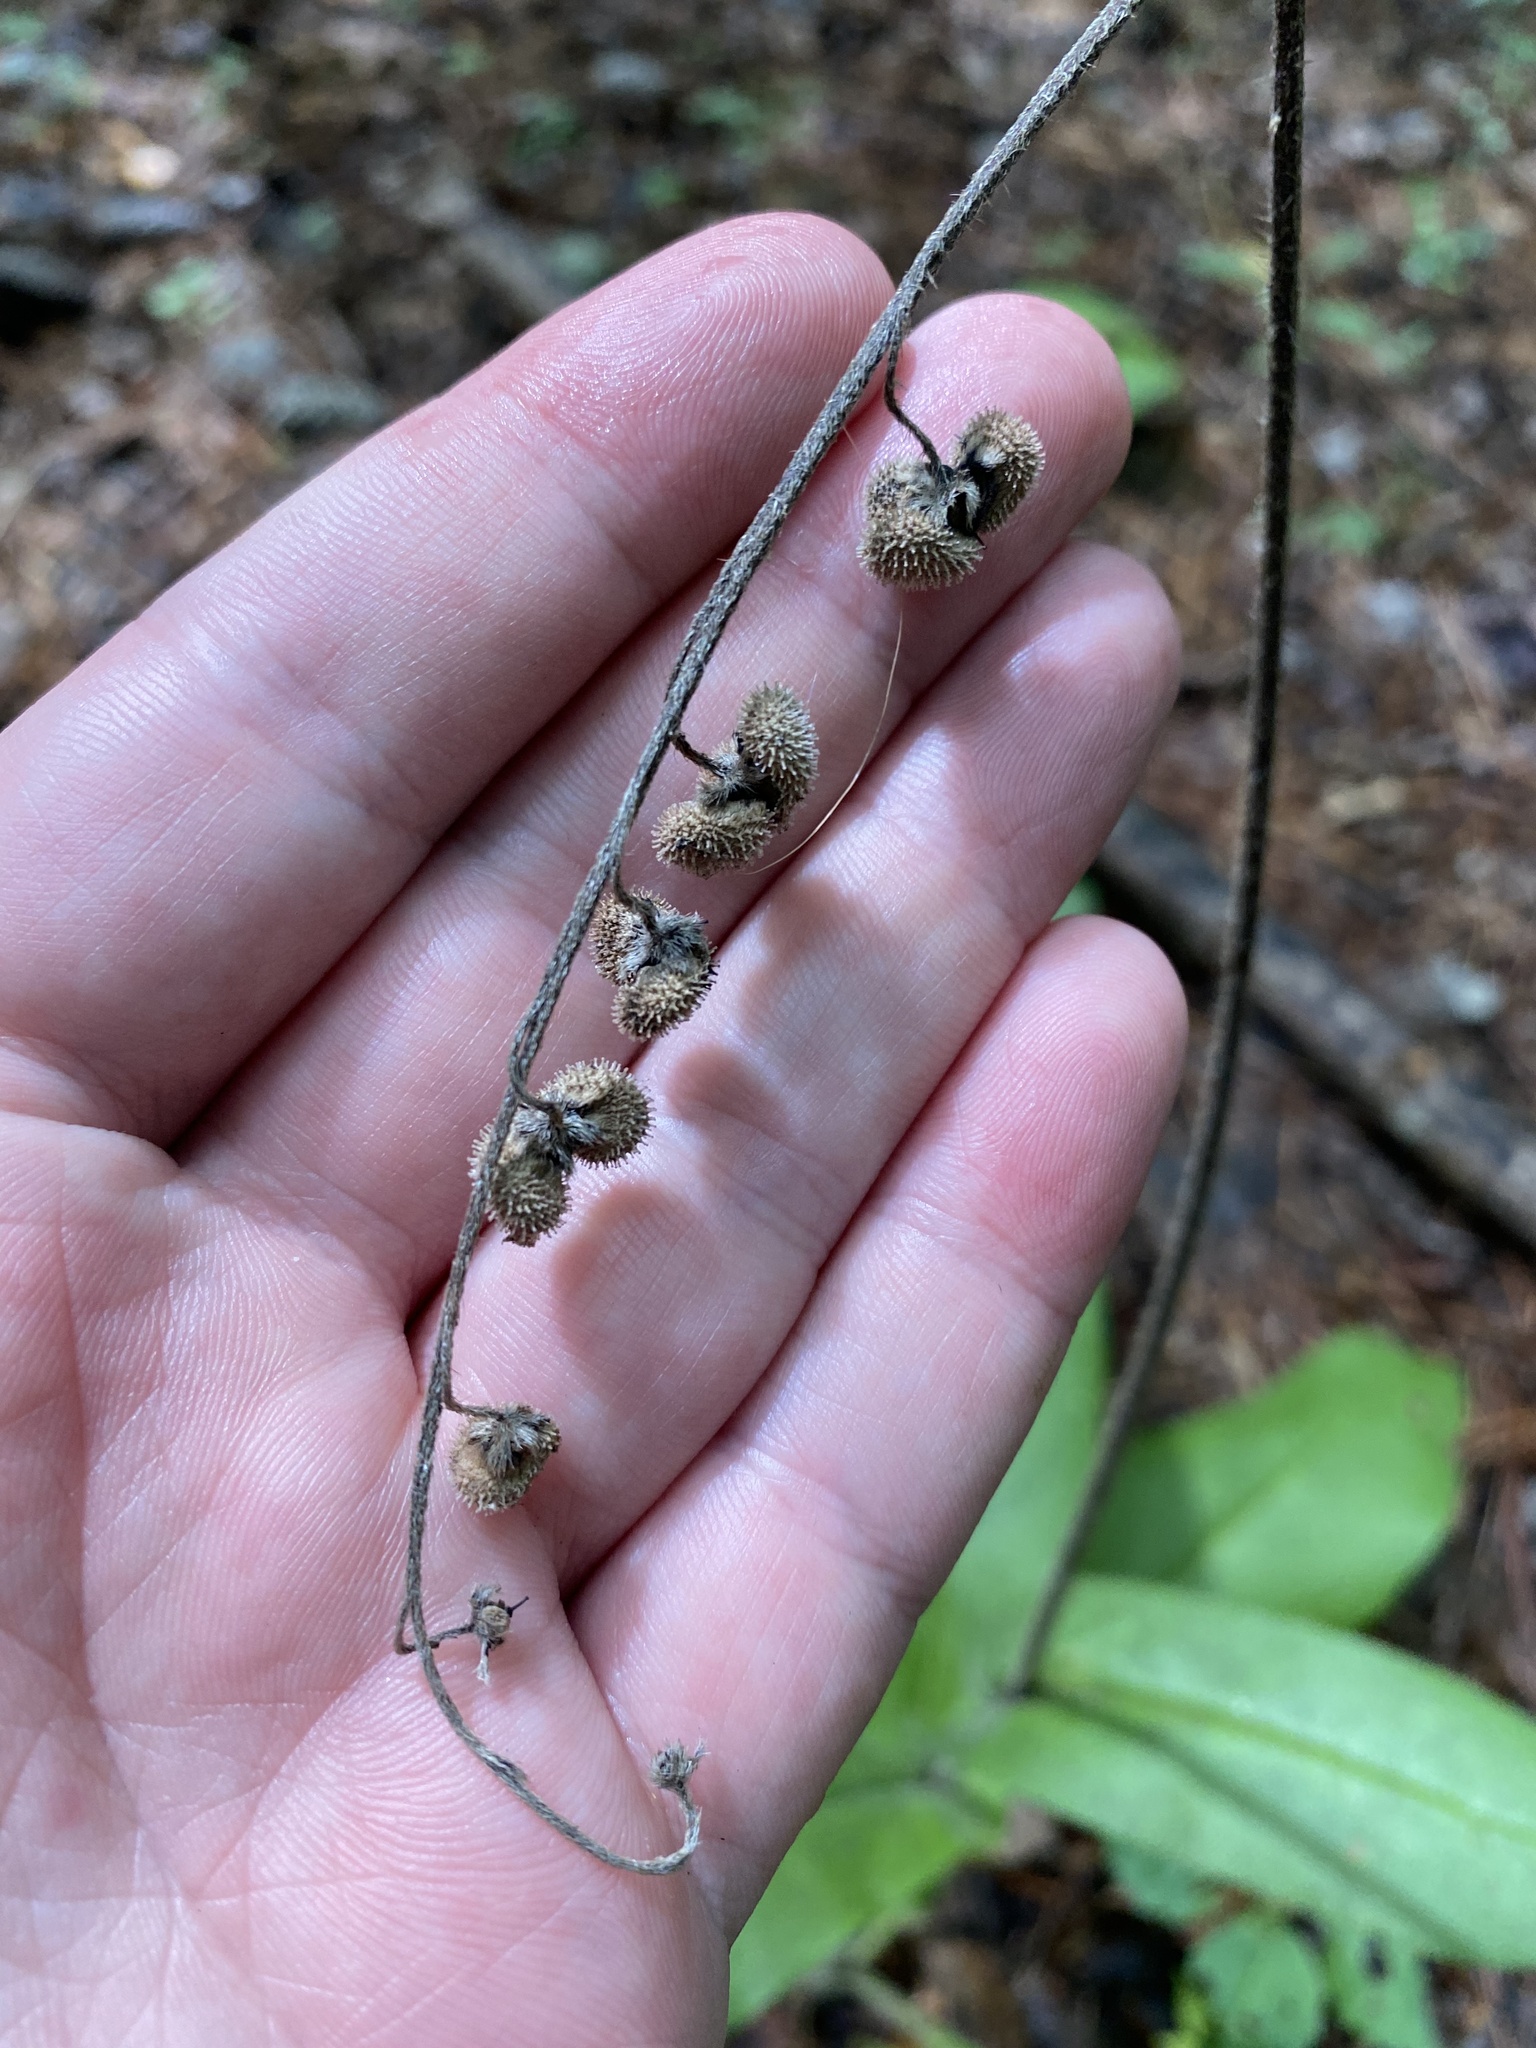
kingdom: Plantae
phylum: Tracheophyta
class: Magnoliopsida
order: Boraginales
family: Boraginaceae
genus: Andersonglossum
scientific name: Andersonglossum virginianum
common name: Wild comfrey
